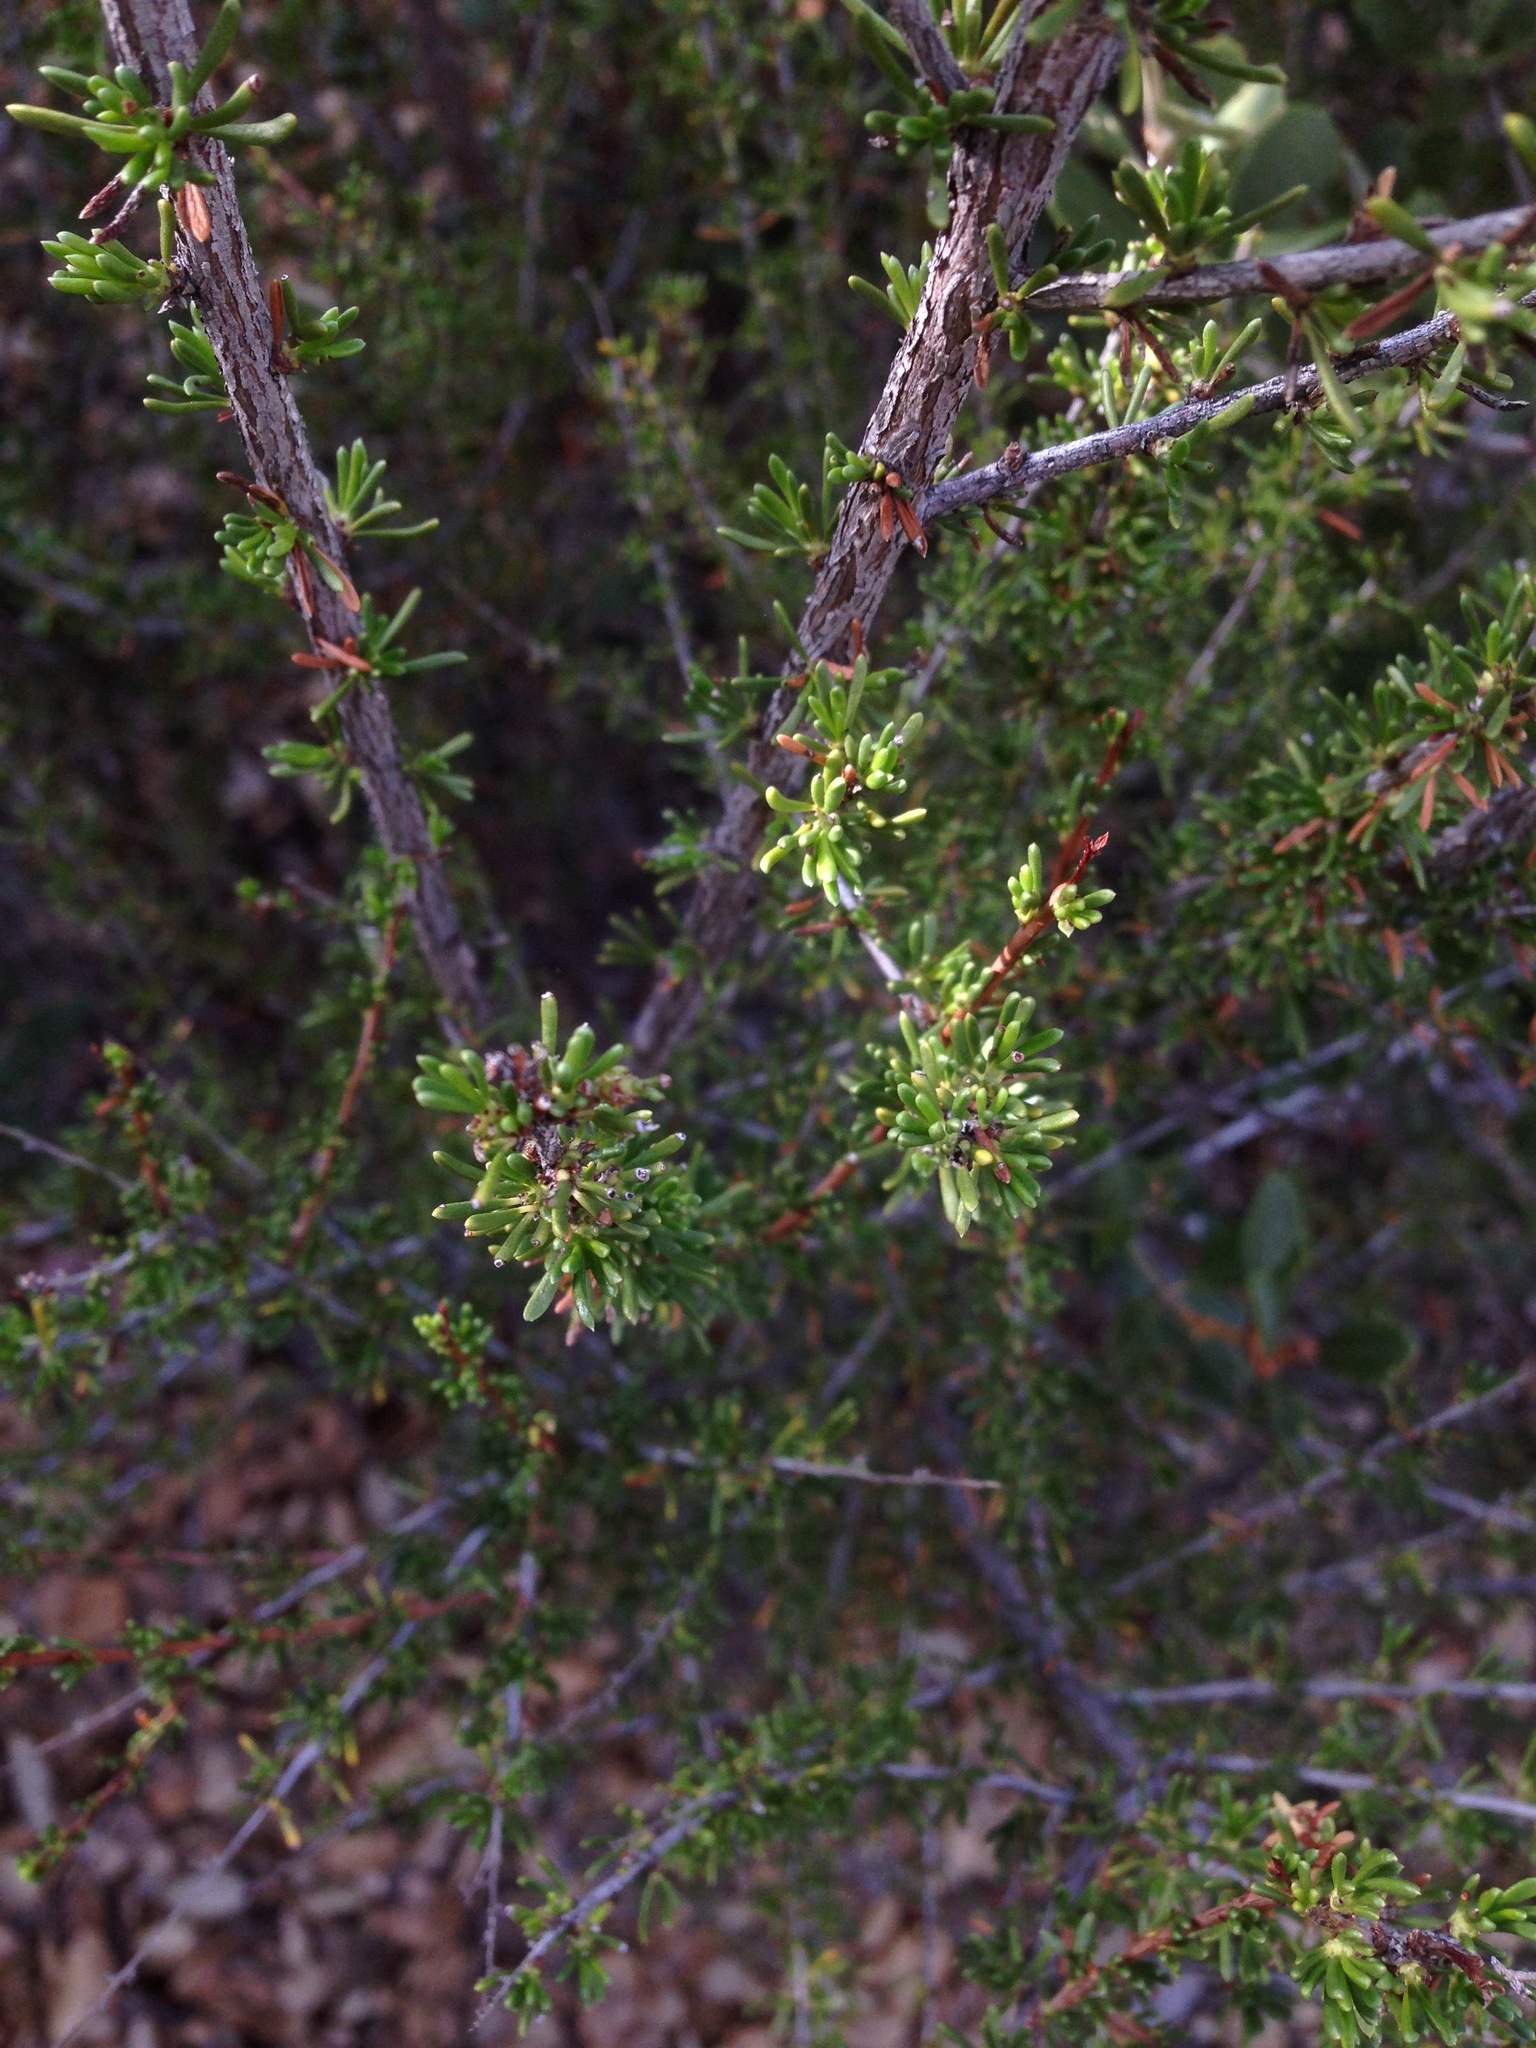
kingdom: Plantae
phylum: Tracheophyta
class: Magnoliopsida
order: Rosales
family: Rosaceae
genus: Adenostoma
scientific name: Adenostoma fasciculatum
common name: Chamise
